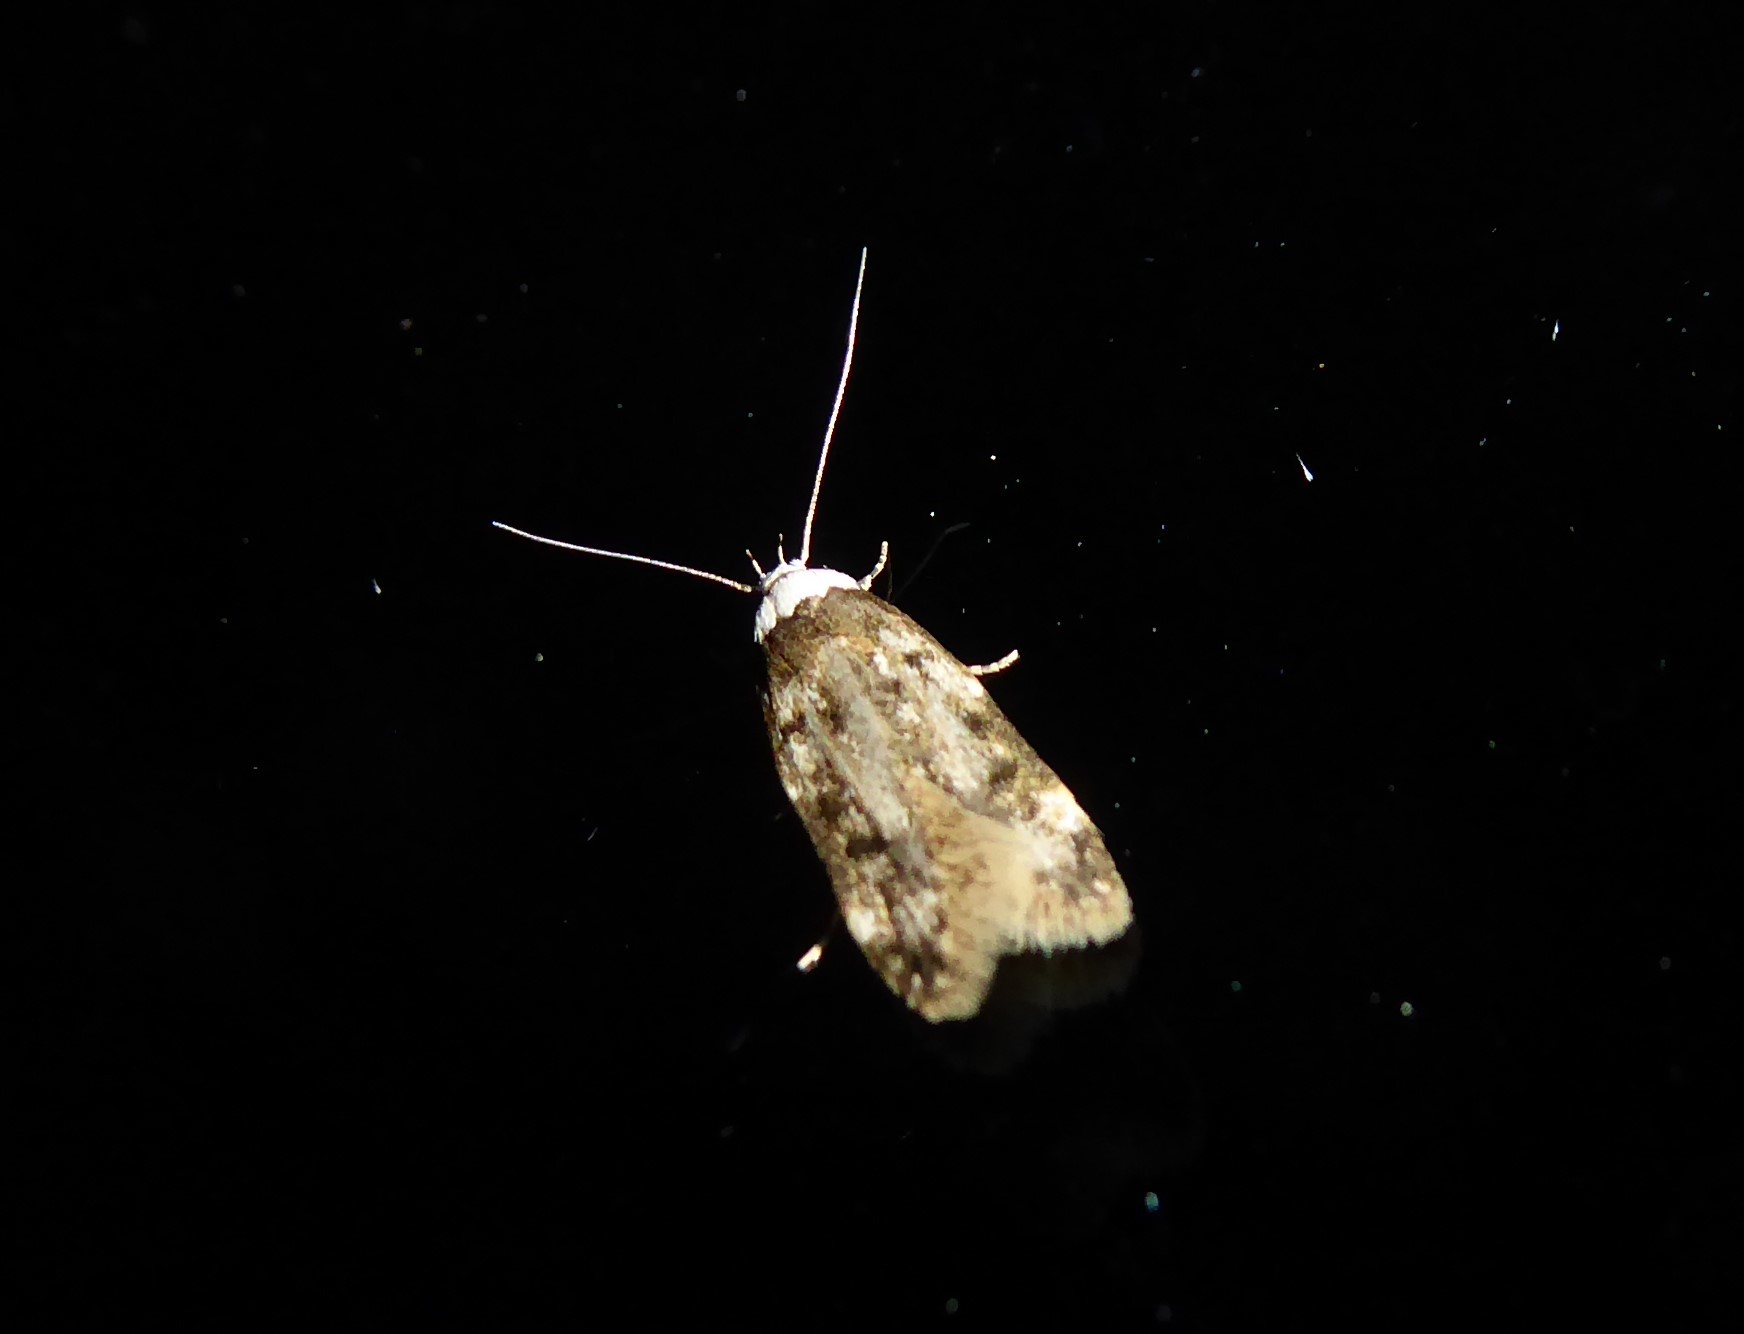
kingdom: Animalia
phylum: Arthropoda
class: Insecta
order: Lepidoptera
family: Oecophoridae
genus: Endrosis
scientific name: Endrosis sarcitrella
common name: White-shouldered house moth
